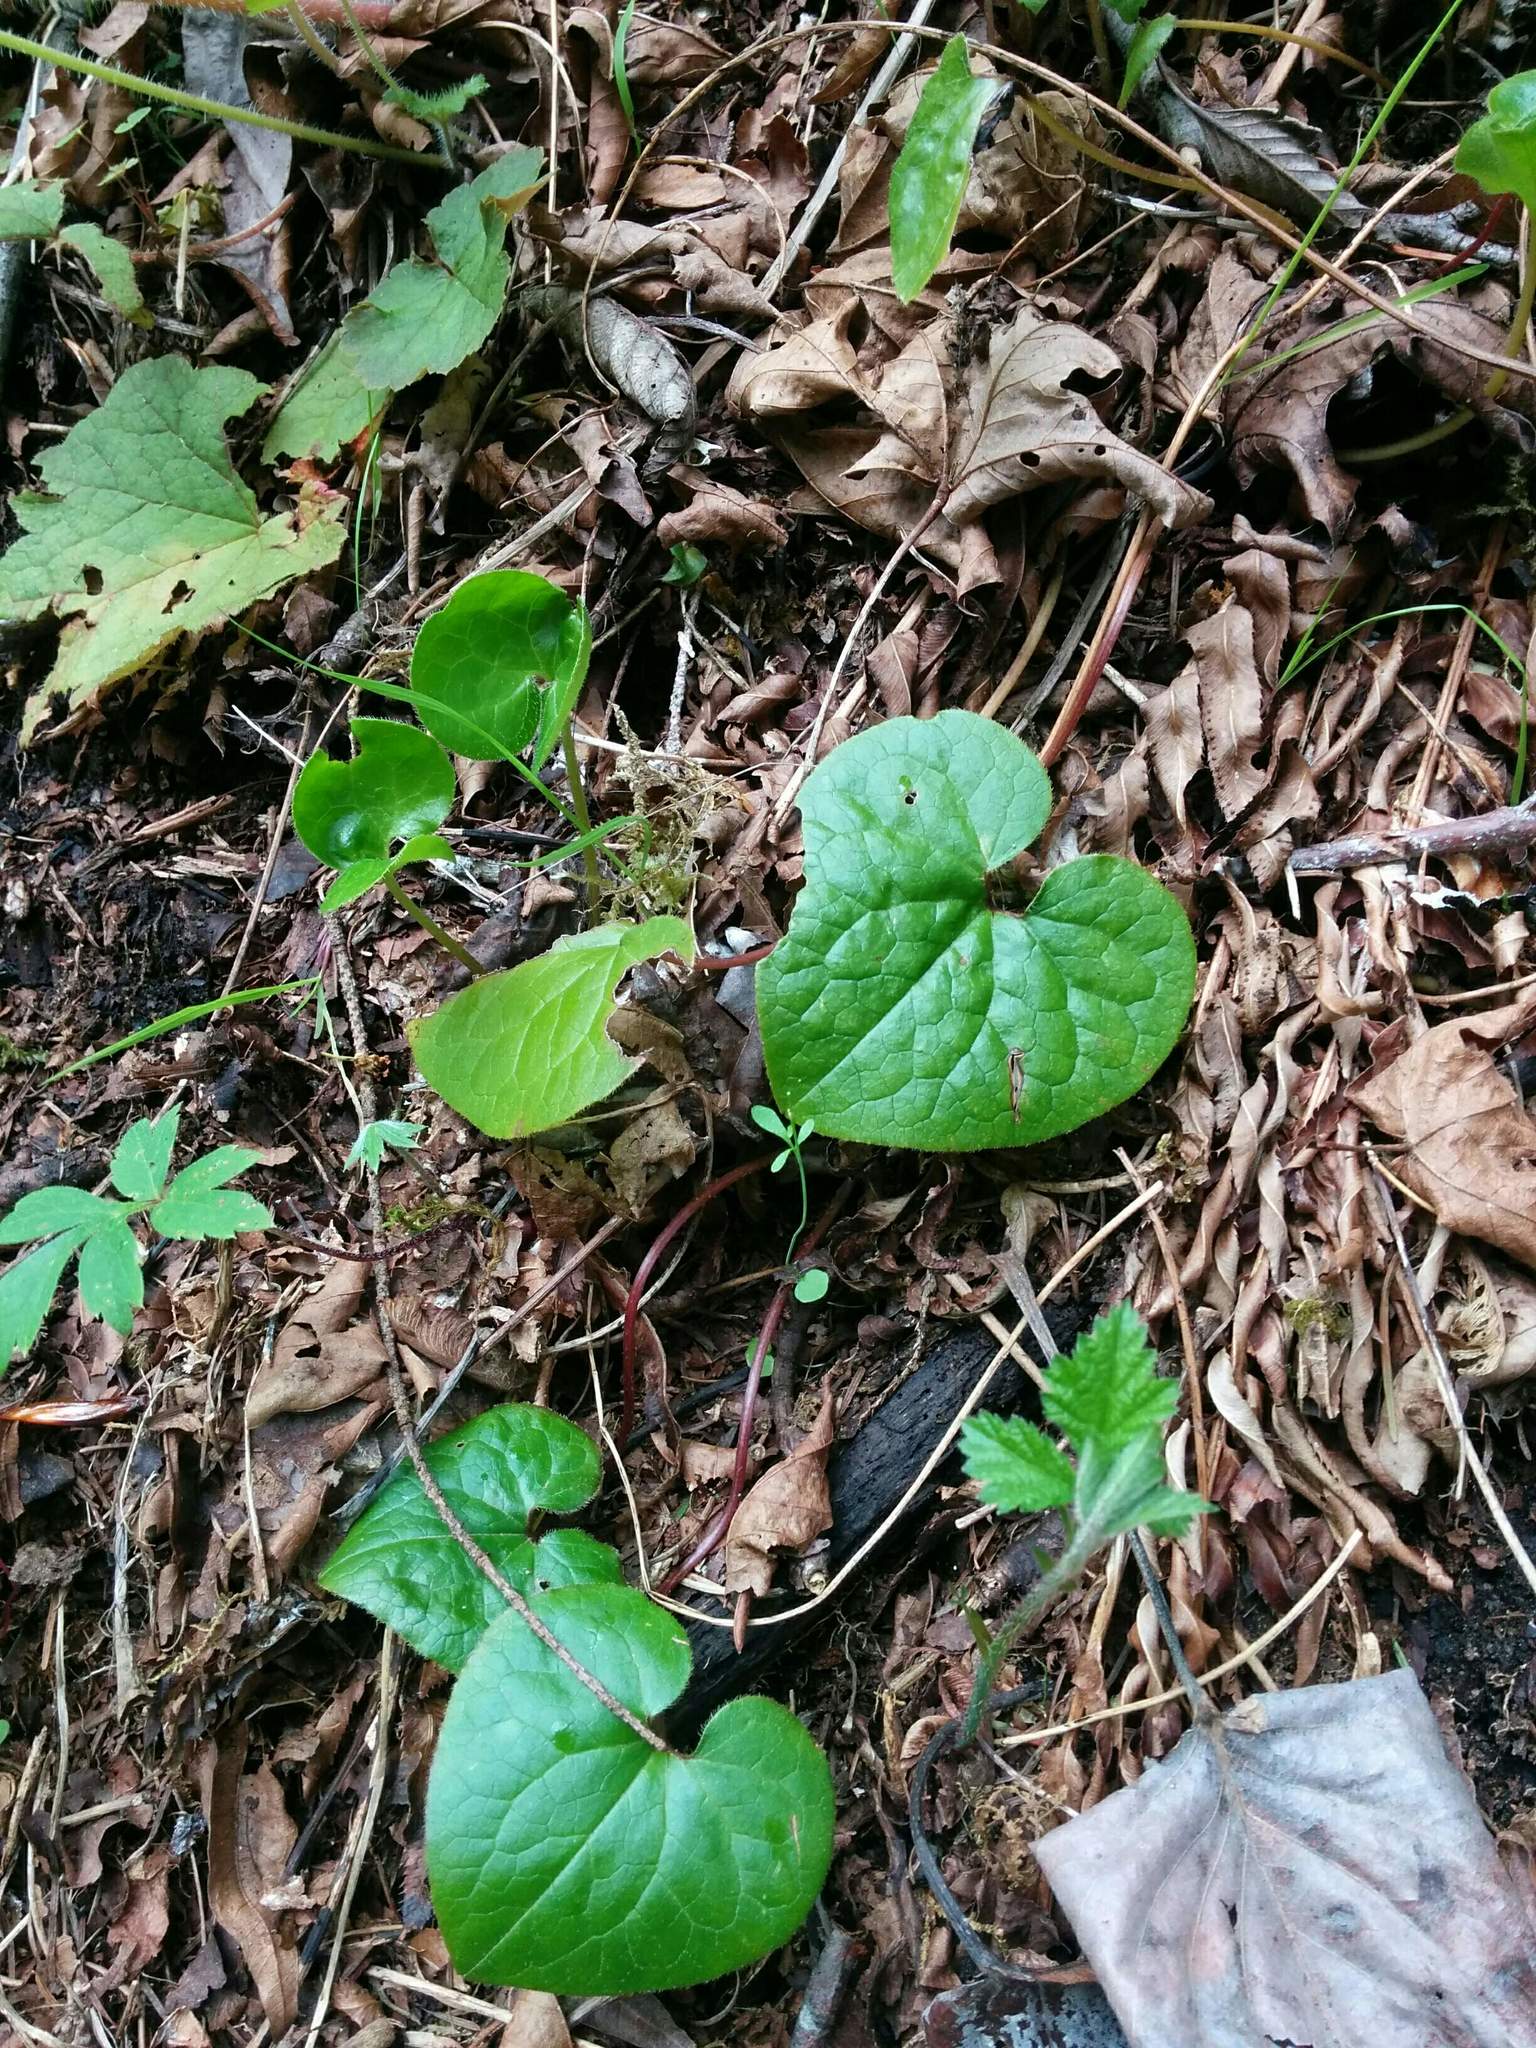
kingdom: Plantae
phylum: Tracheophyta
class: Magnoliopsida
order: Piperales
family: Aristolochiaceae
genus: Asarum
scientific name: Asarum caudatum
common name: Wild ginger
